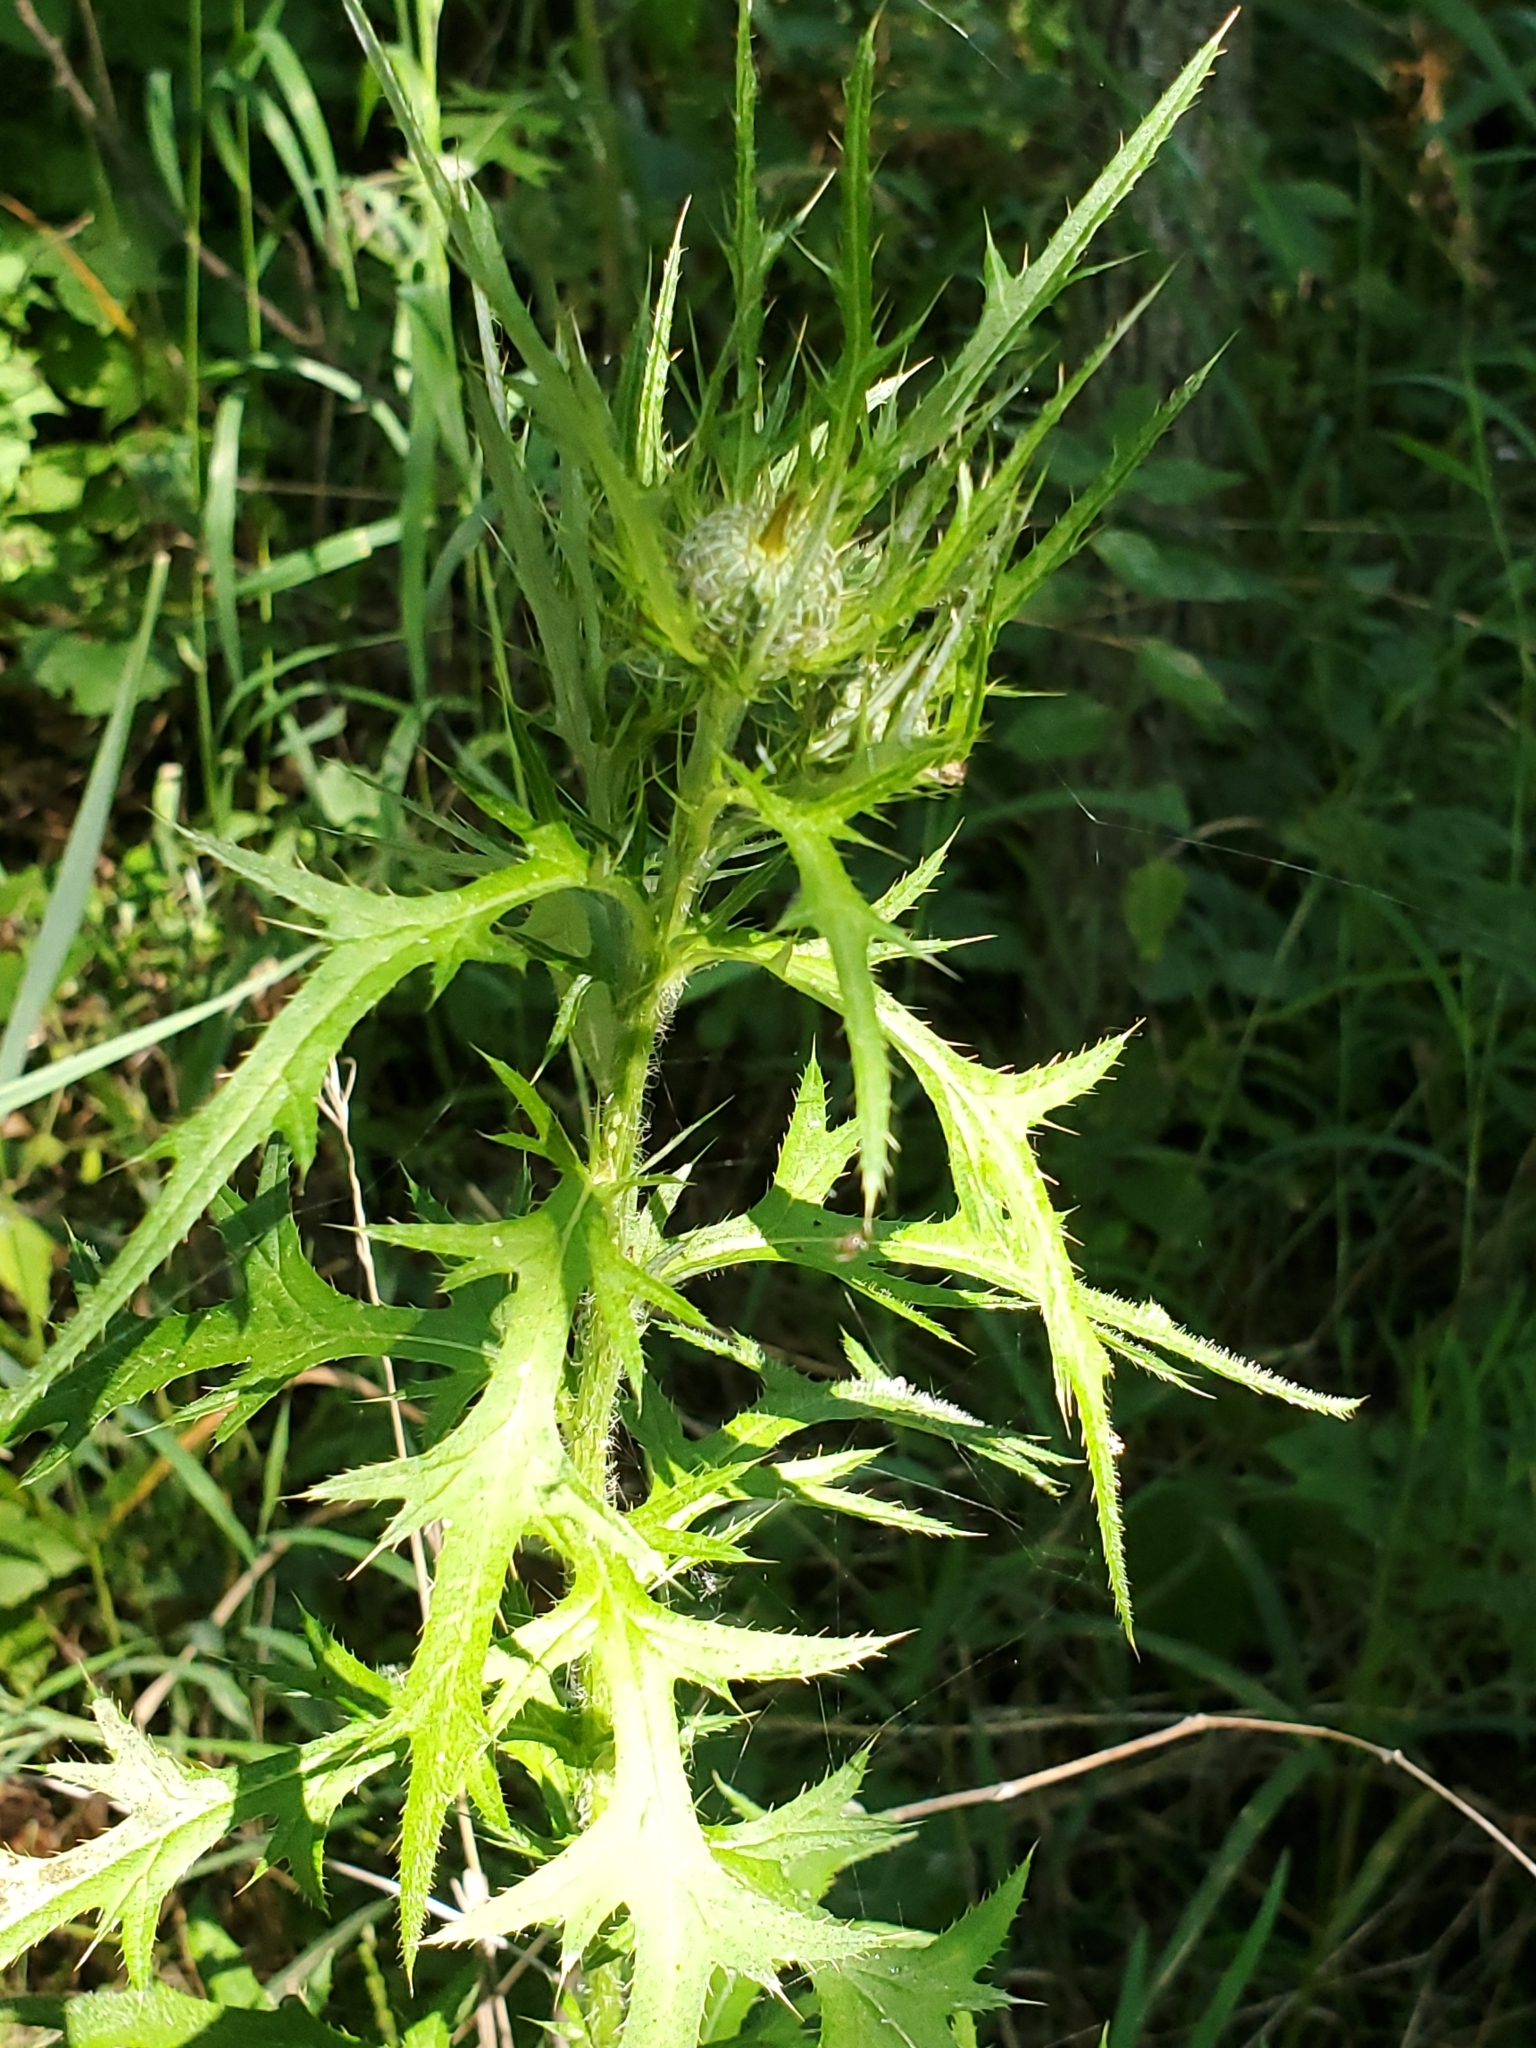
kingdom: Plantae
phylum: Tracheophyta
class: Magnoliopsida
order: Asterales
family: Asteraceae
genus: Cirsium
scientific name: Cirsium discolor
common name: Field thistle
